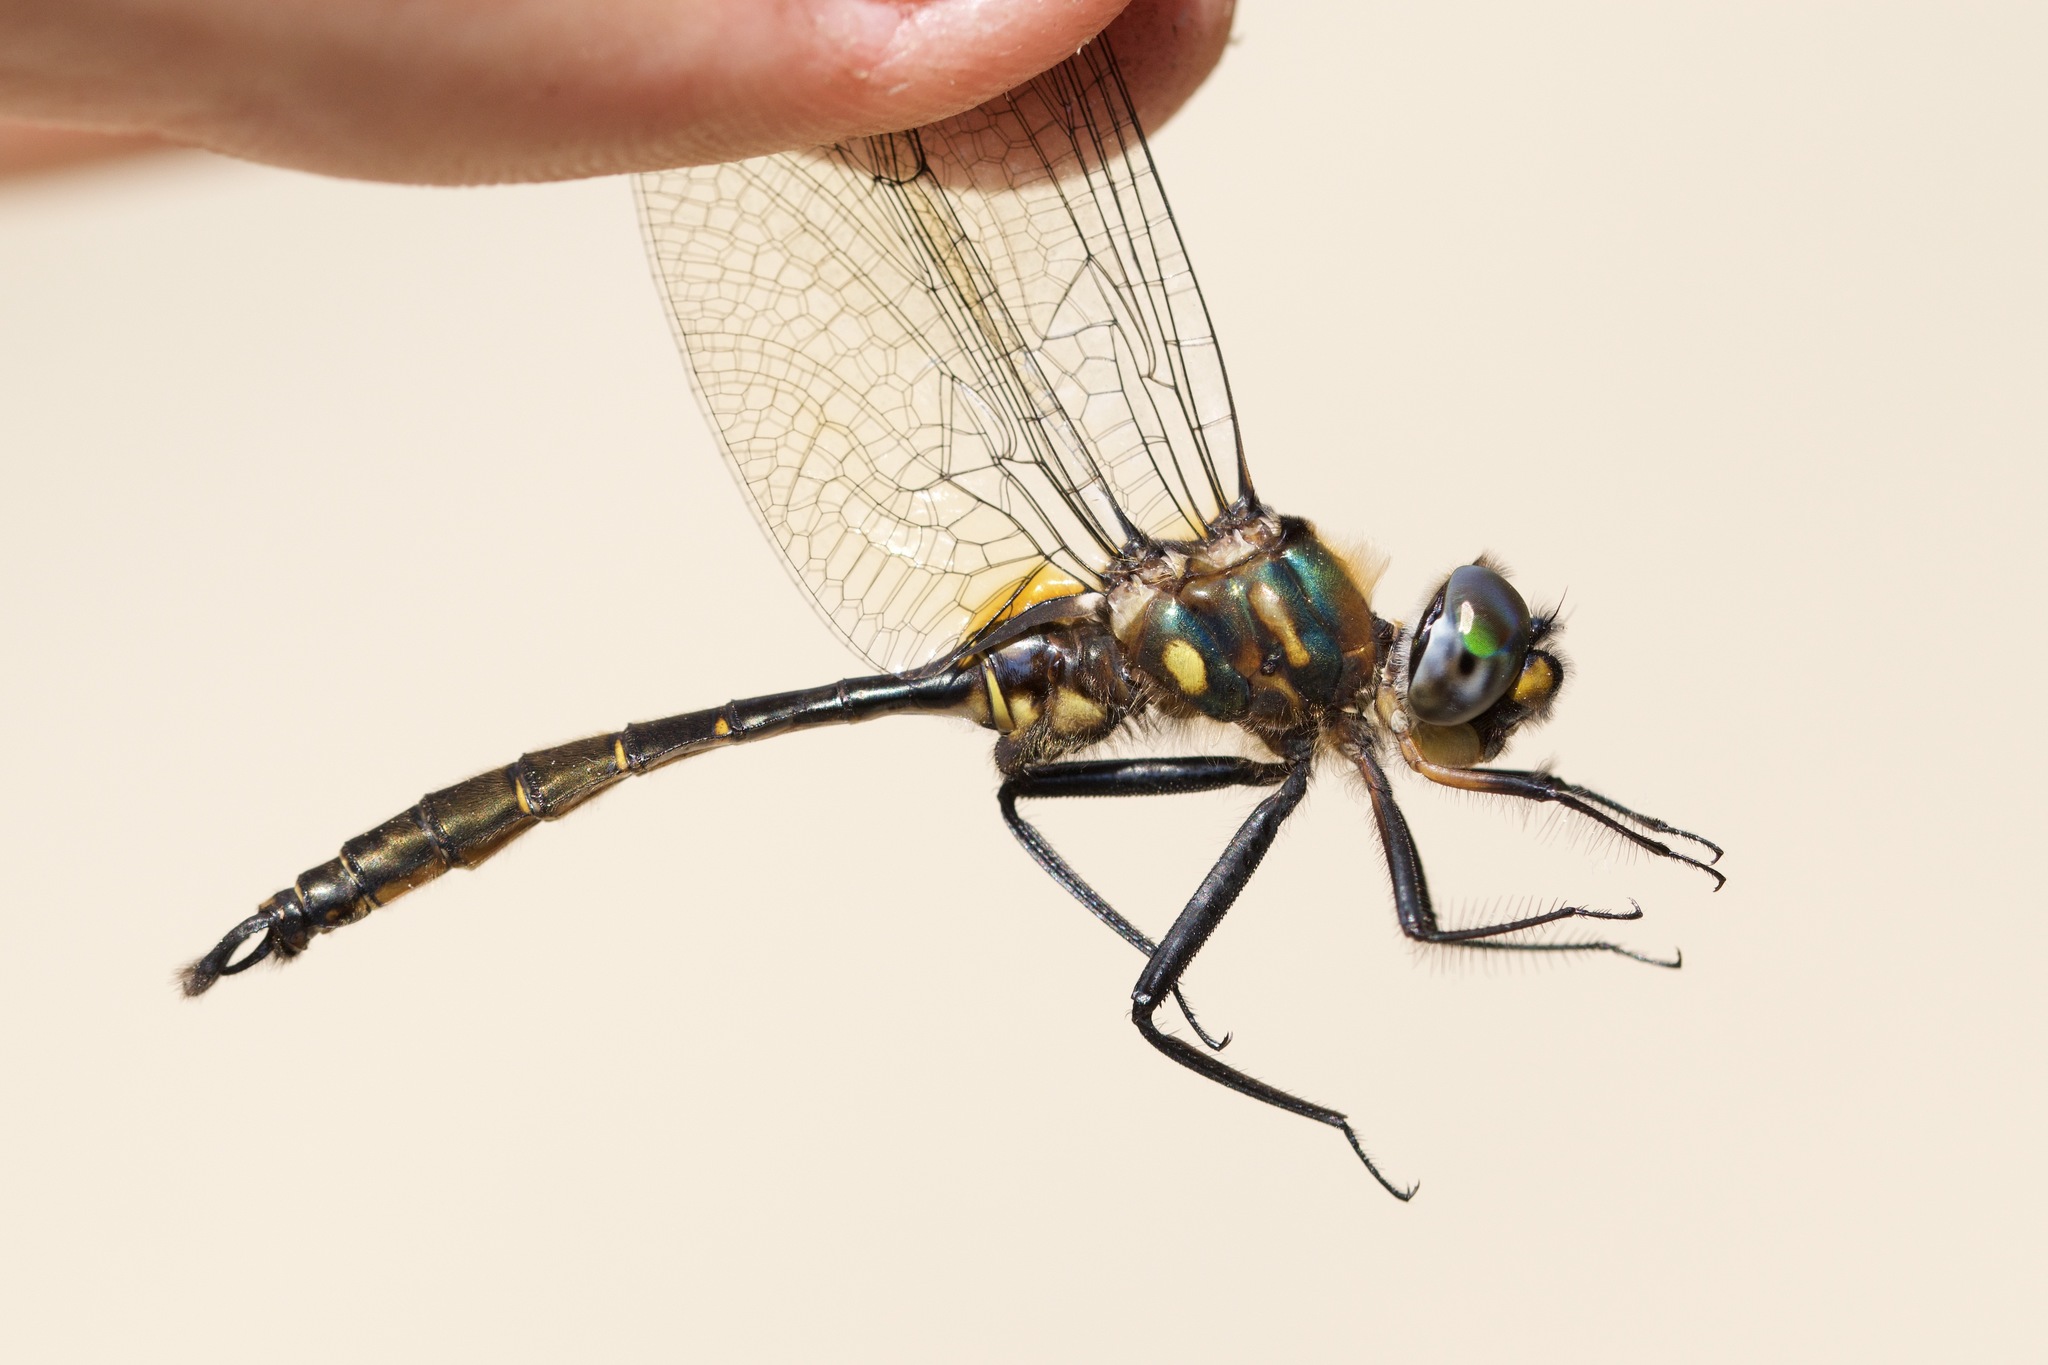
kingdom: Animalia
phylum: Arthropoda
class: Insecta
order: Odonata
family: Corduliidae
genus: Somatochlora
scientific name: Somatochlora walshii
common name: Brush-tipped emerald
